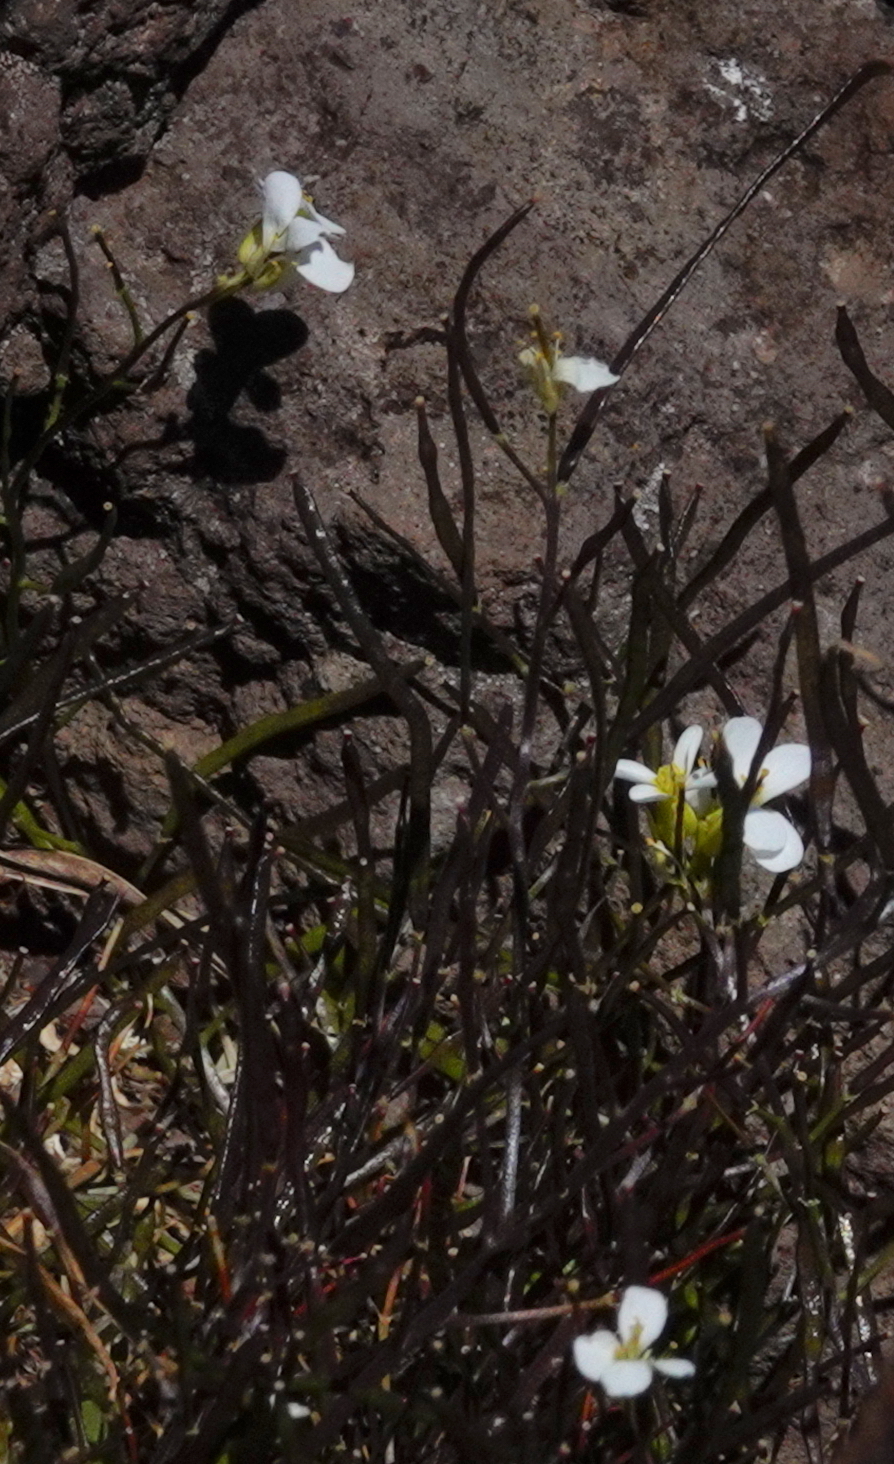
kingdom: Plantae
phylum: Tracheophyta
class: Magnoliopsida
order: Brassicales
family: Brassicaceae
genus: Arabis
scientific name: Arabis caucasica
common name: Gray rockcress
